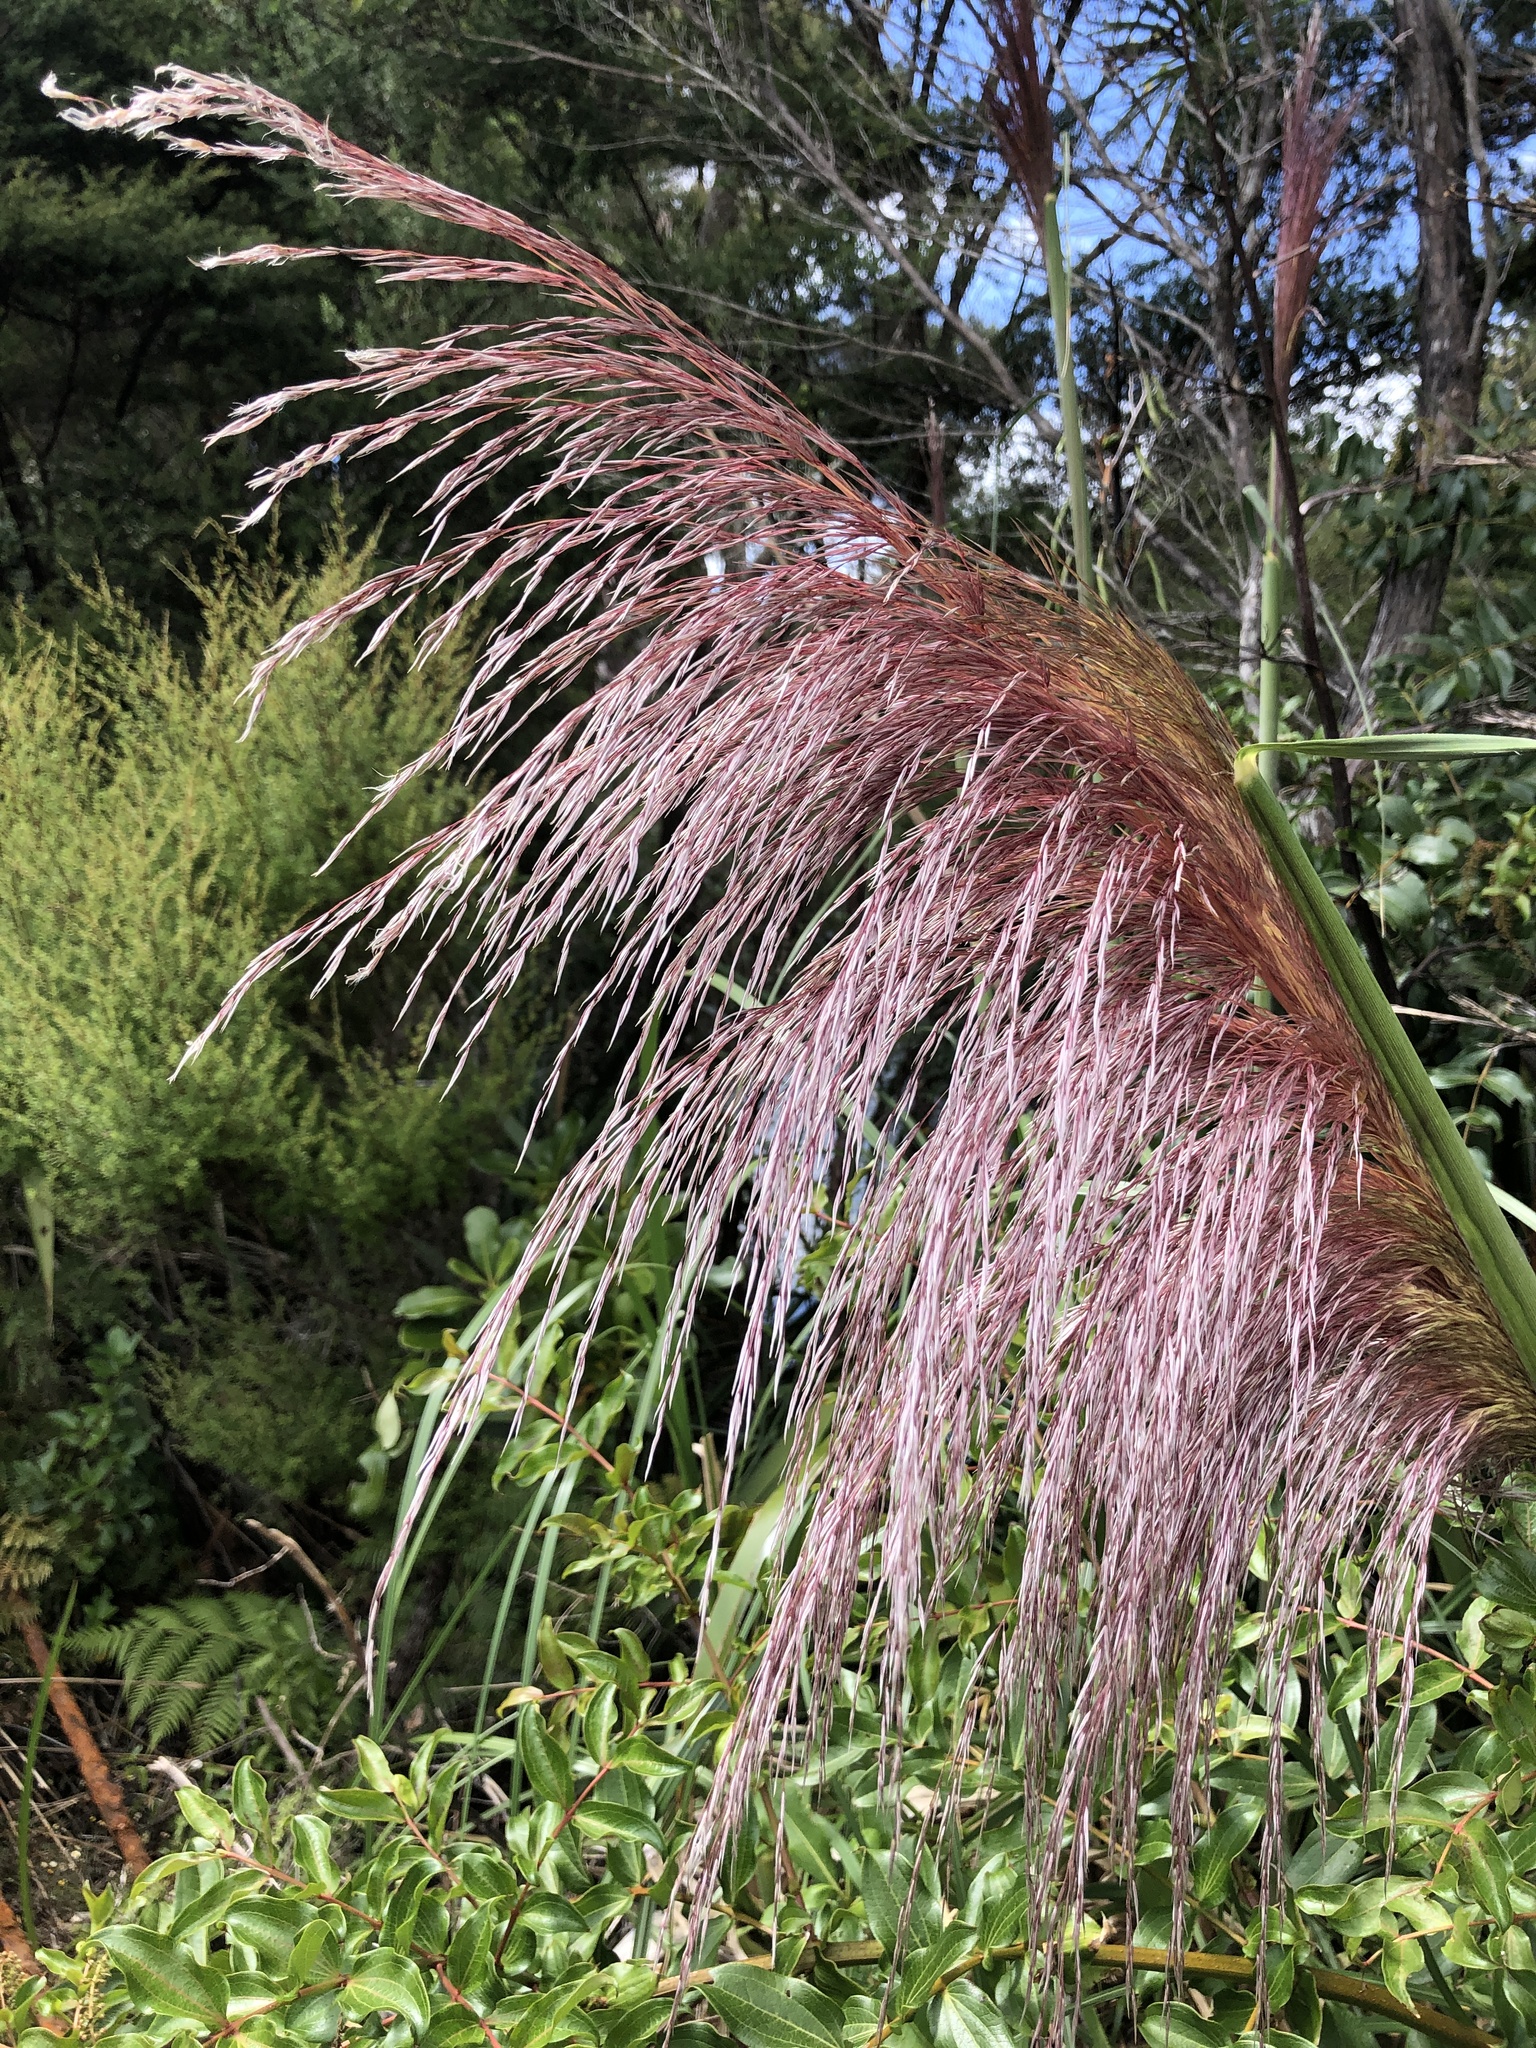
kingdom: Plantae
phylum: Tracheophyta
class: Liliopsida
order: Poales
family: Poaceae
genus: Cortaderia
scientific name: Cortaderia jubata
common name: Purple pampas grass
